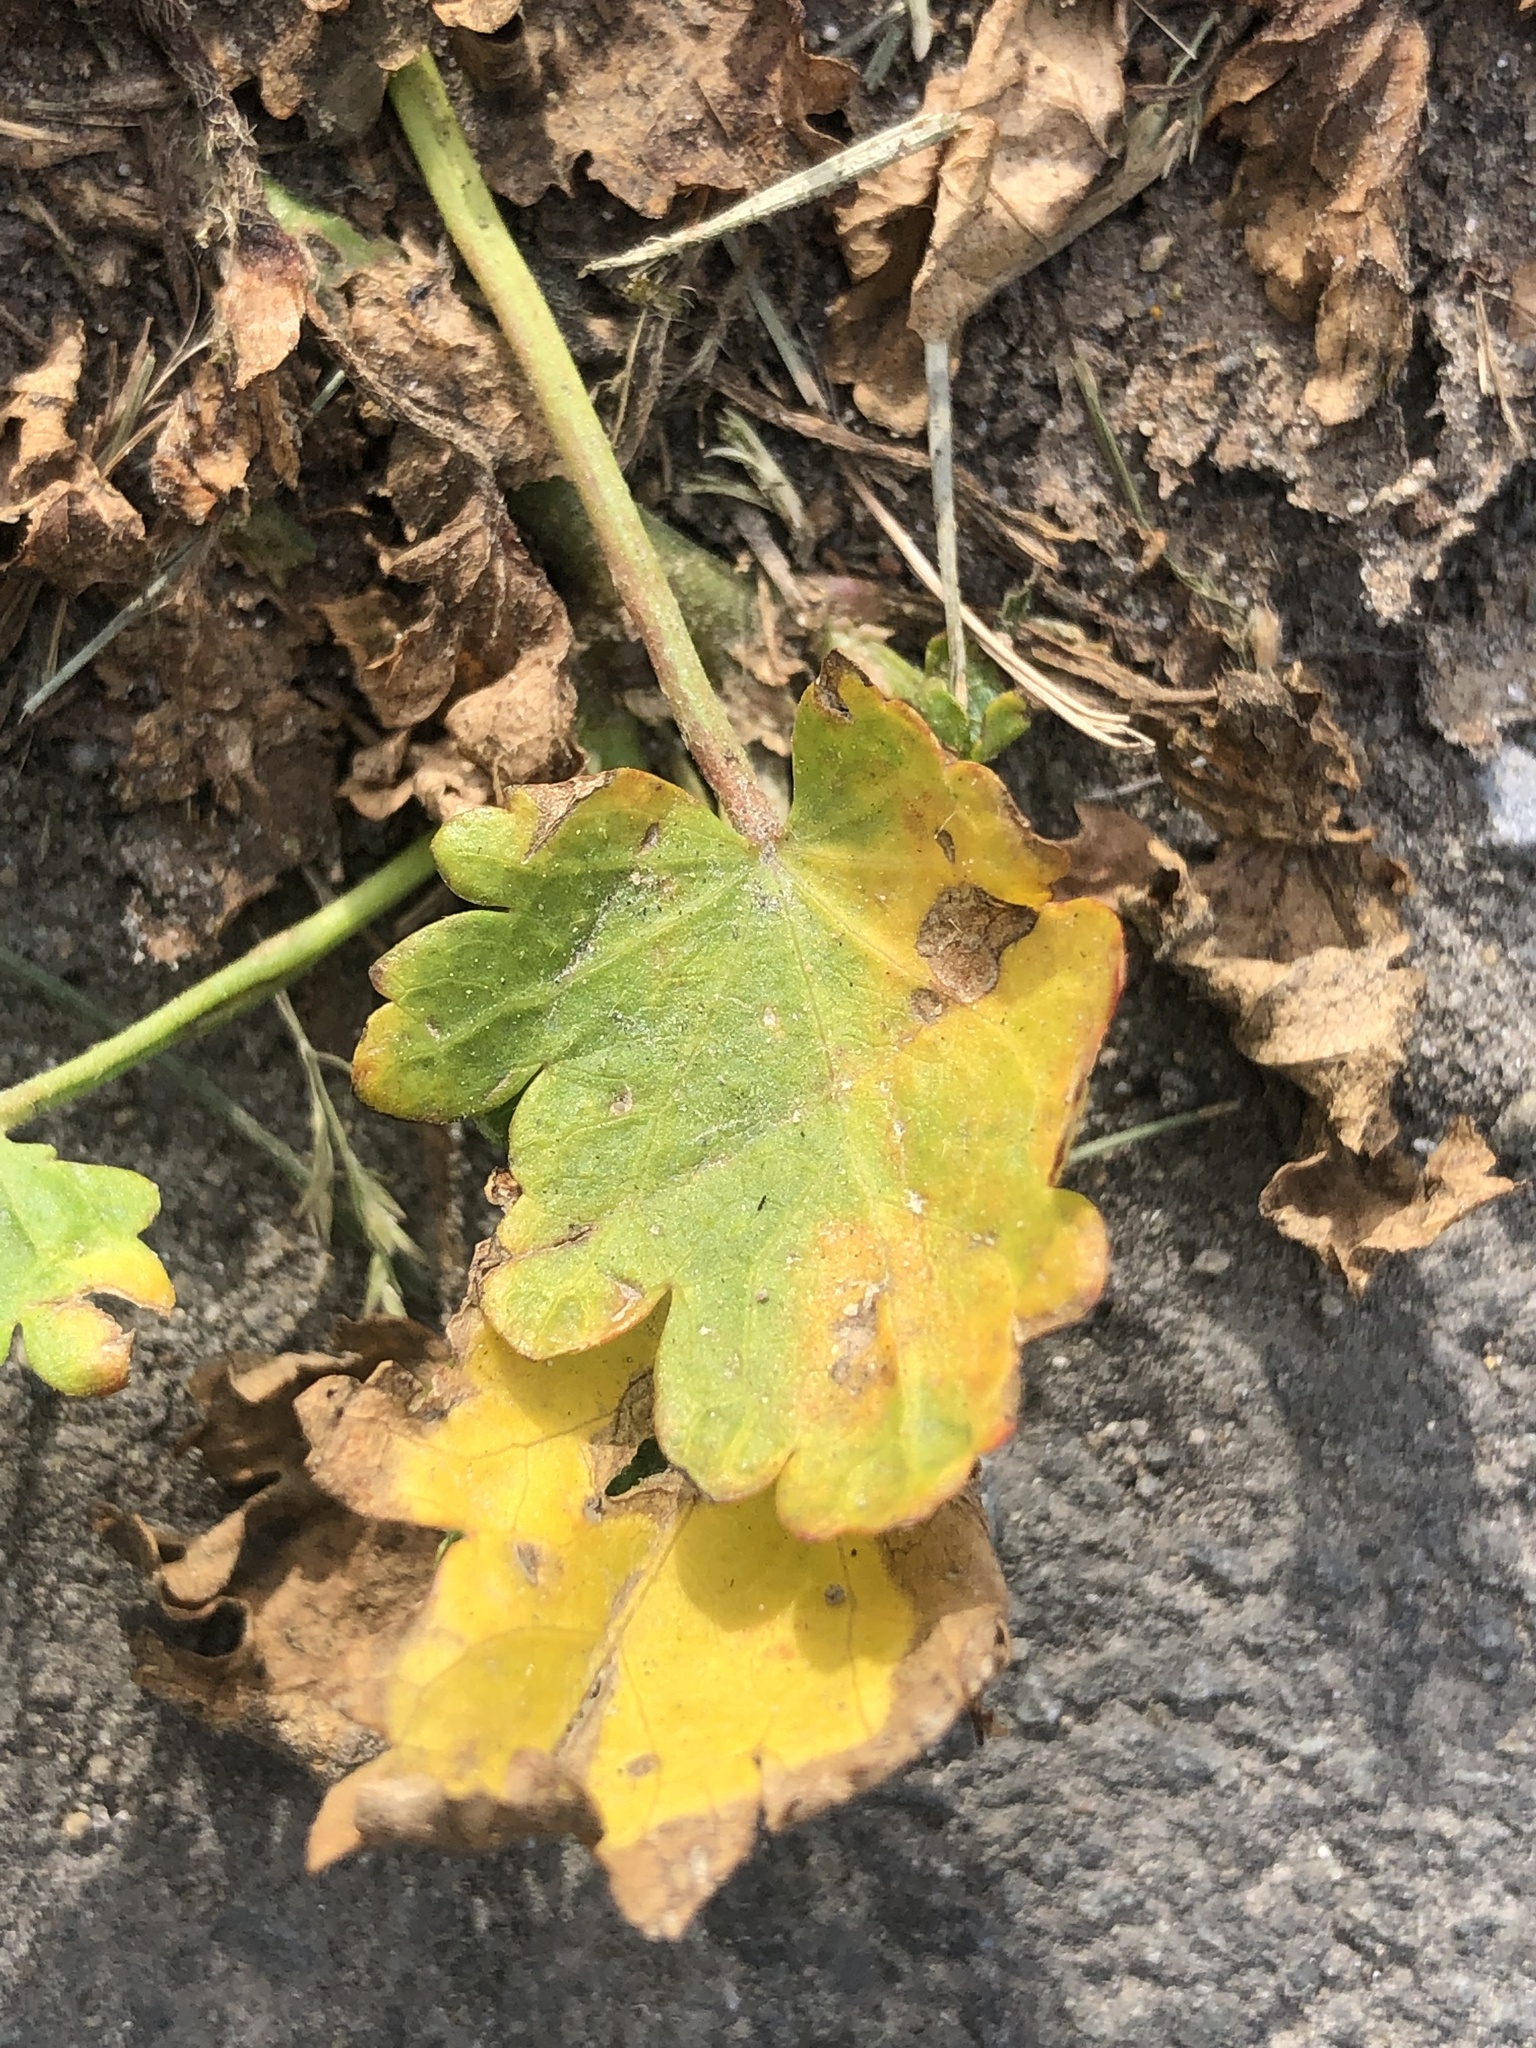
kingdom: Plantae
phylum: Tracheophyta
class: Magnoliopsida
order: Malvales
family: Malvaceae
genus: Modiola
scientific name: Modiola caroliniana
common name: Carolina bristlemallow
